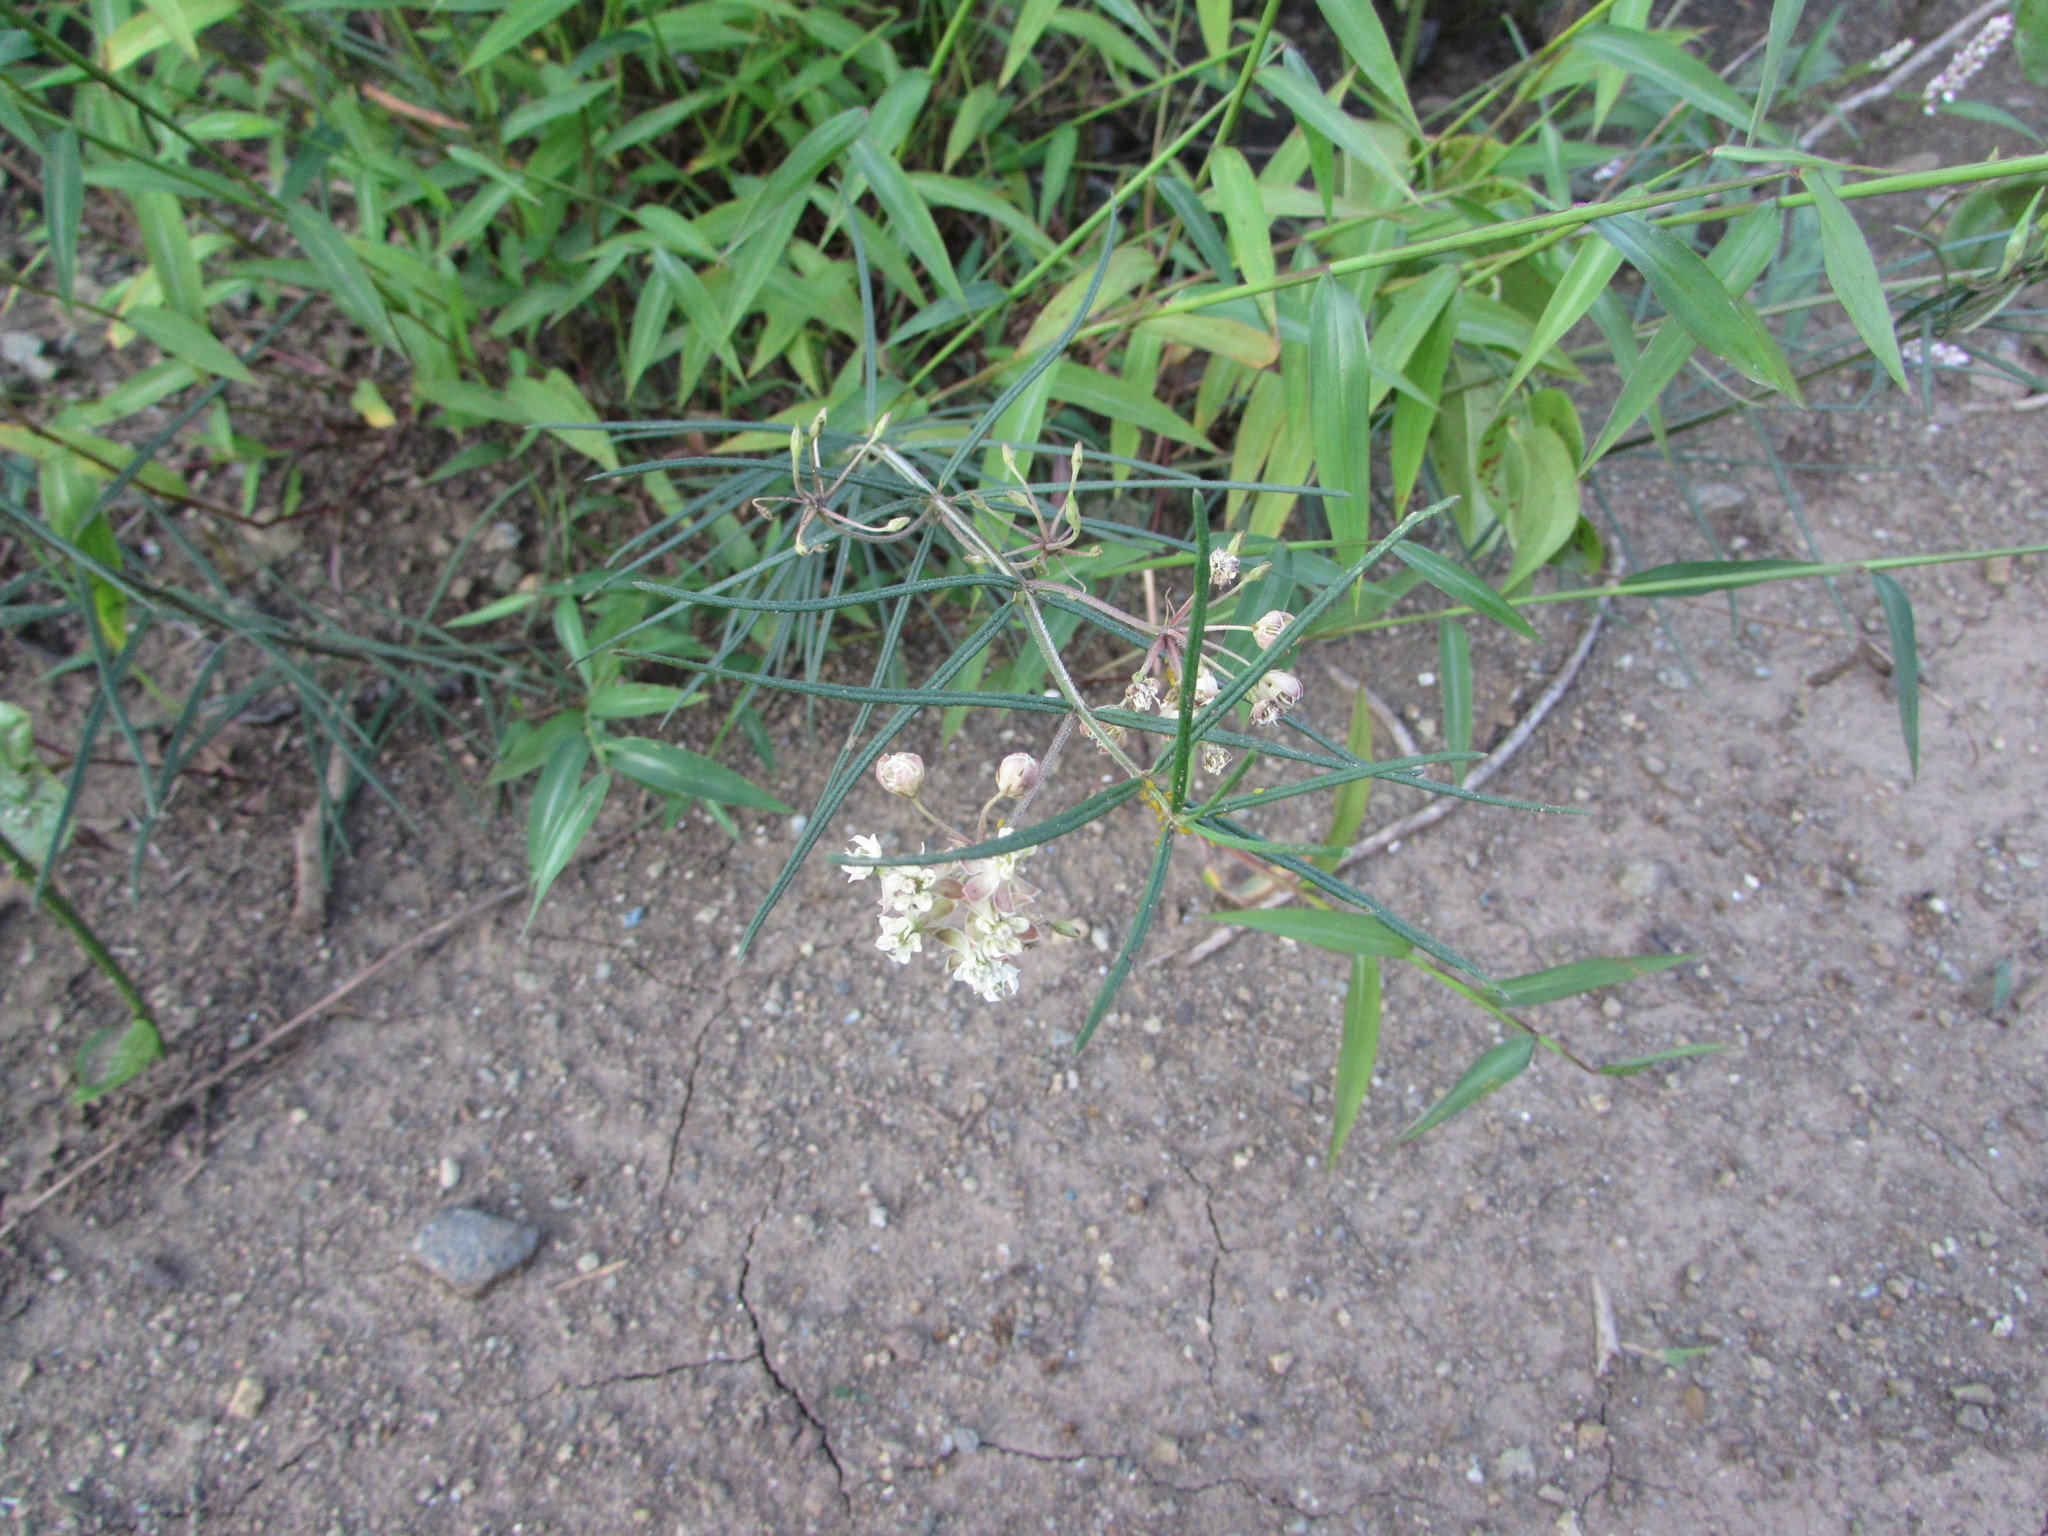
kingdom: Plantae
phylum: Tracheophyta
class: Magnoliopsida
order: Gentianales
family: Apocynaceae
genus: Asclepias
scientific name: Asclepias verticillata
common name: Eastern whorled milkweed
